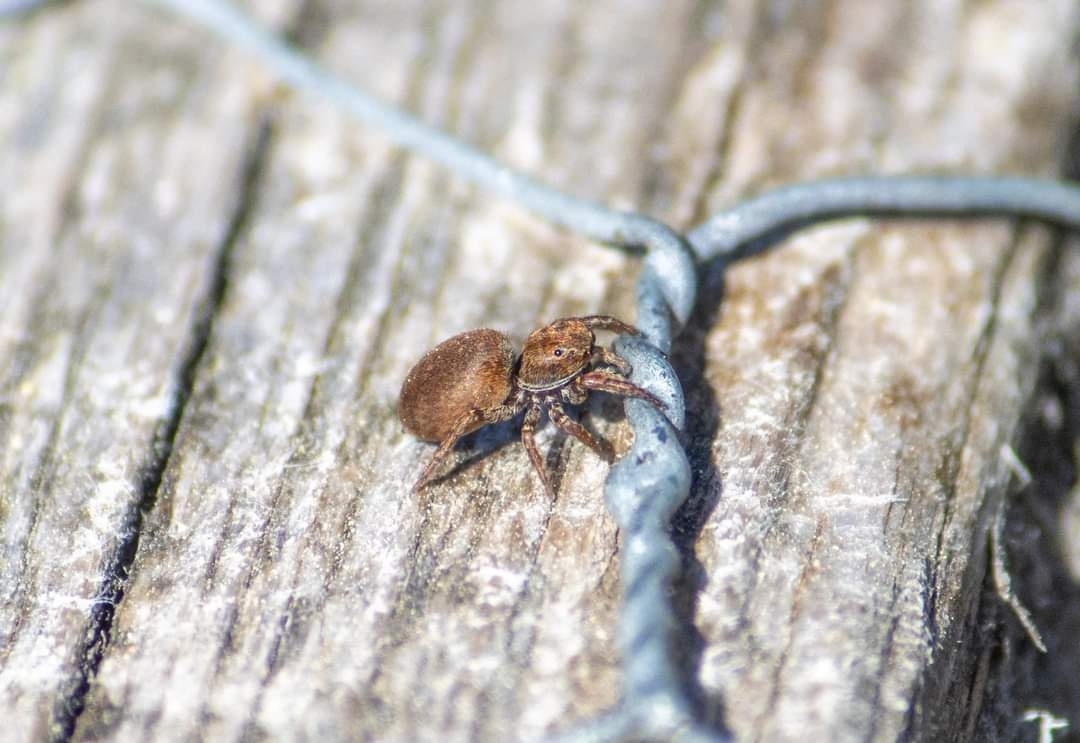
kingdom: Animalia
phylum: Arthropoda
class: Arachnida
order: Araneae
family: Salticidae
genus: Attulus
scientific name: Attulus caricis
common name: Sedge jumper
